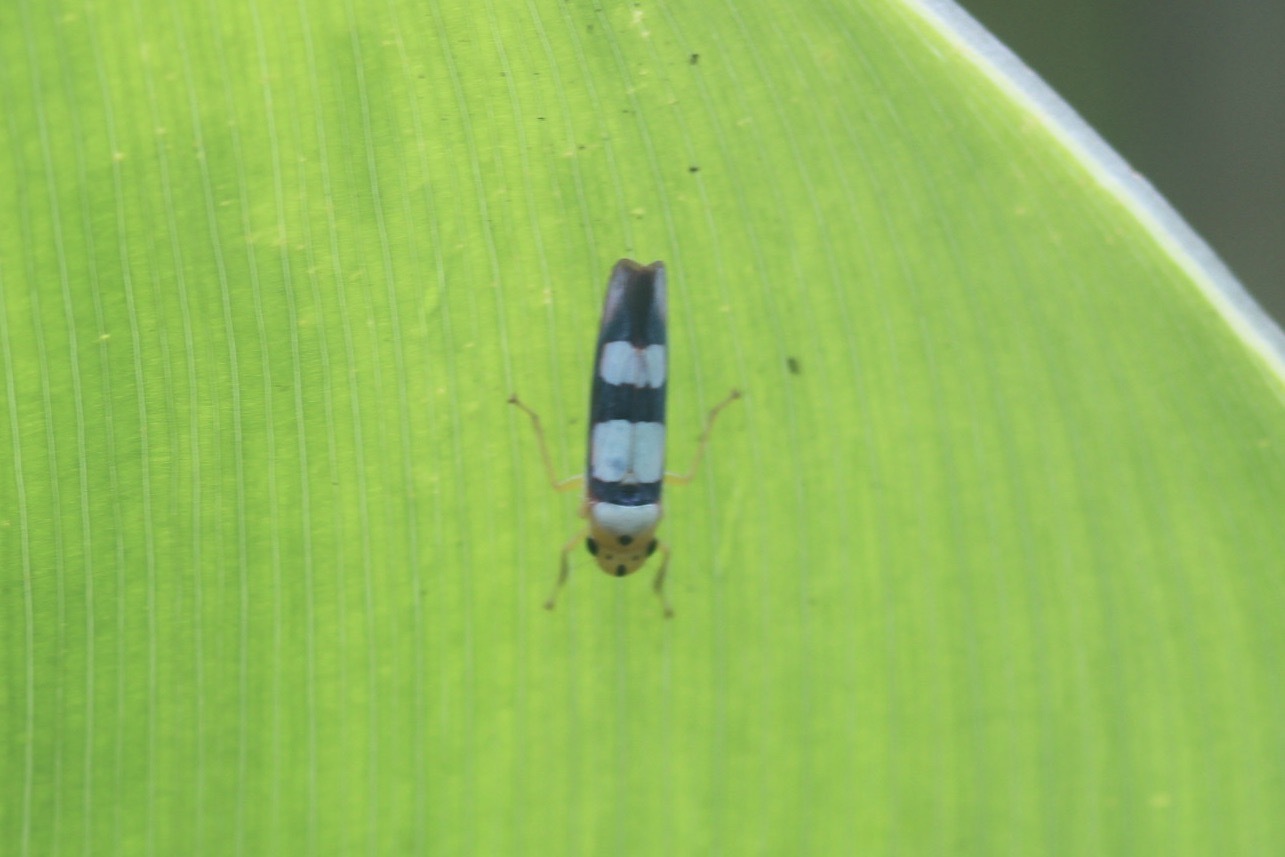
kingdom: Animalia
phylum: Arthropoda
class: Insecta
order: Hemiptera
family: Cicadellidae
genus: Tettisama
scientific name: Tettisama bisellata
